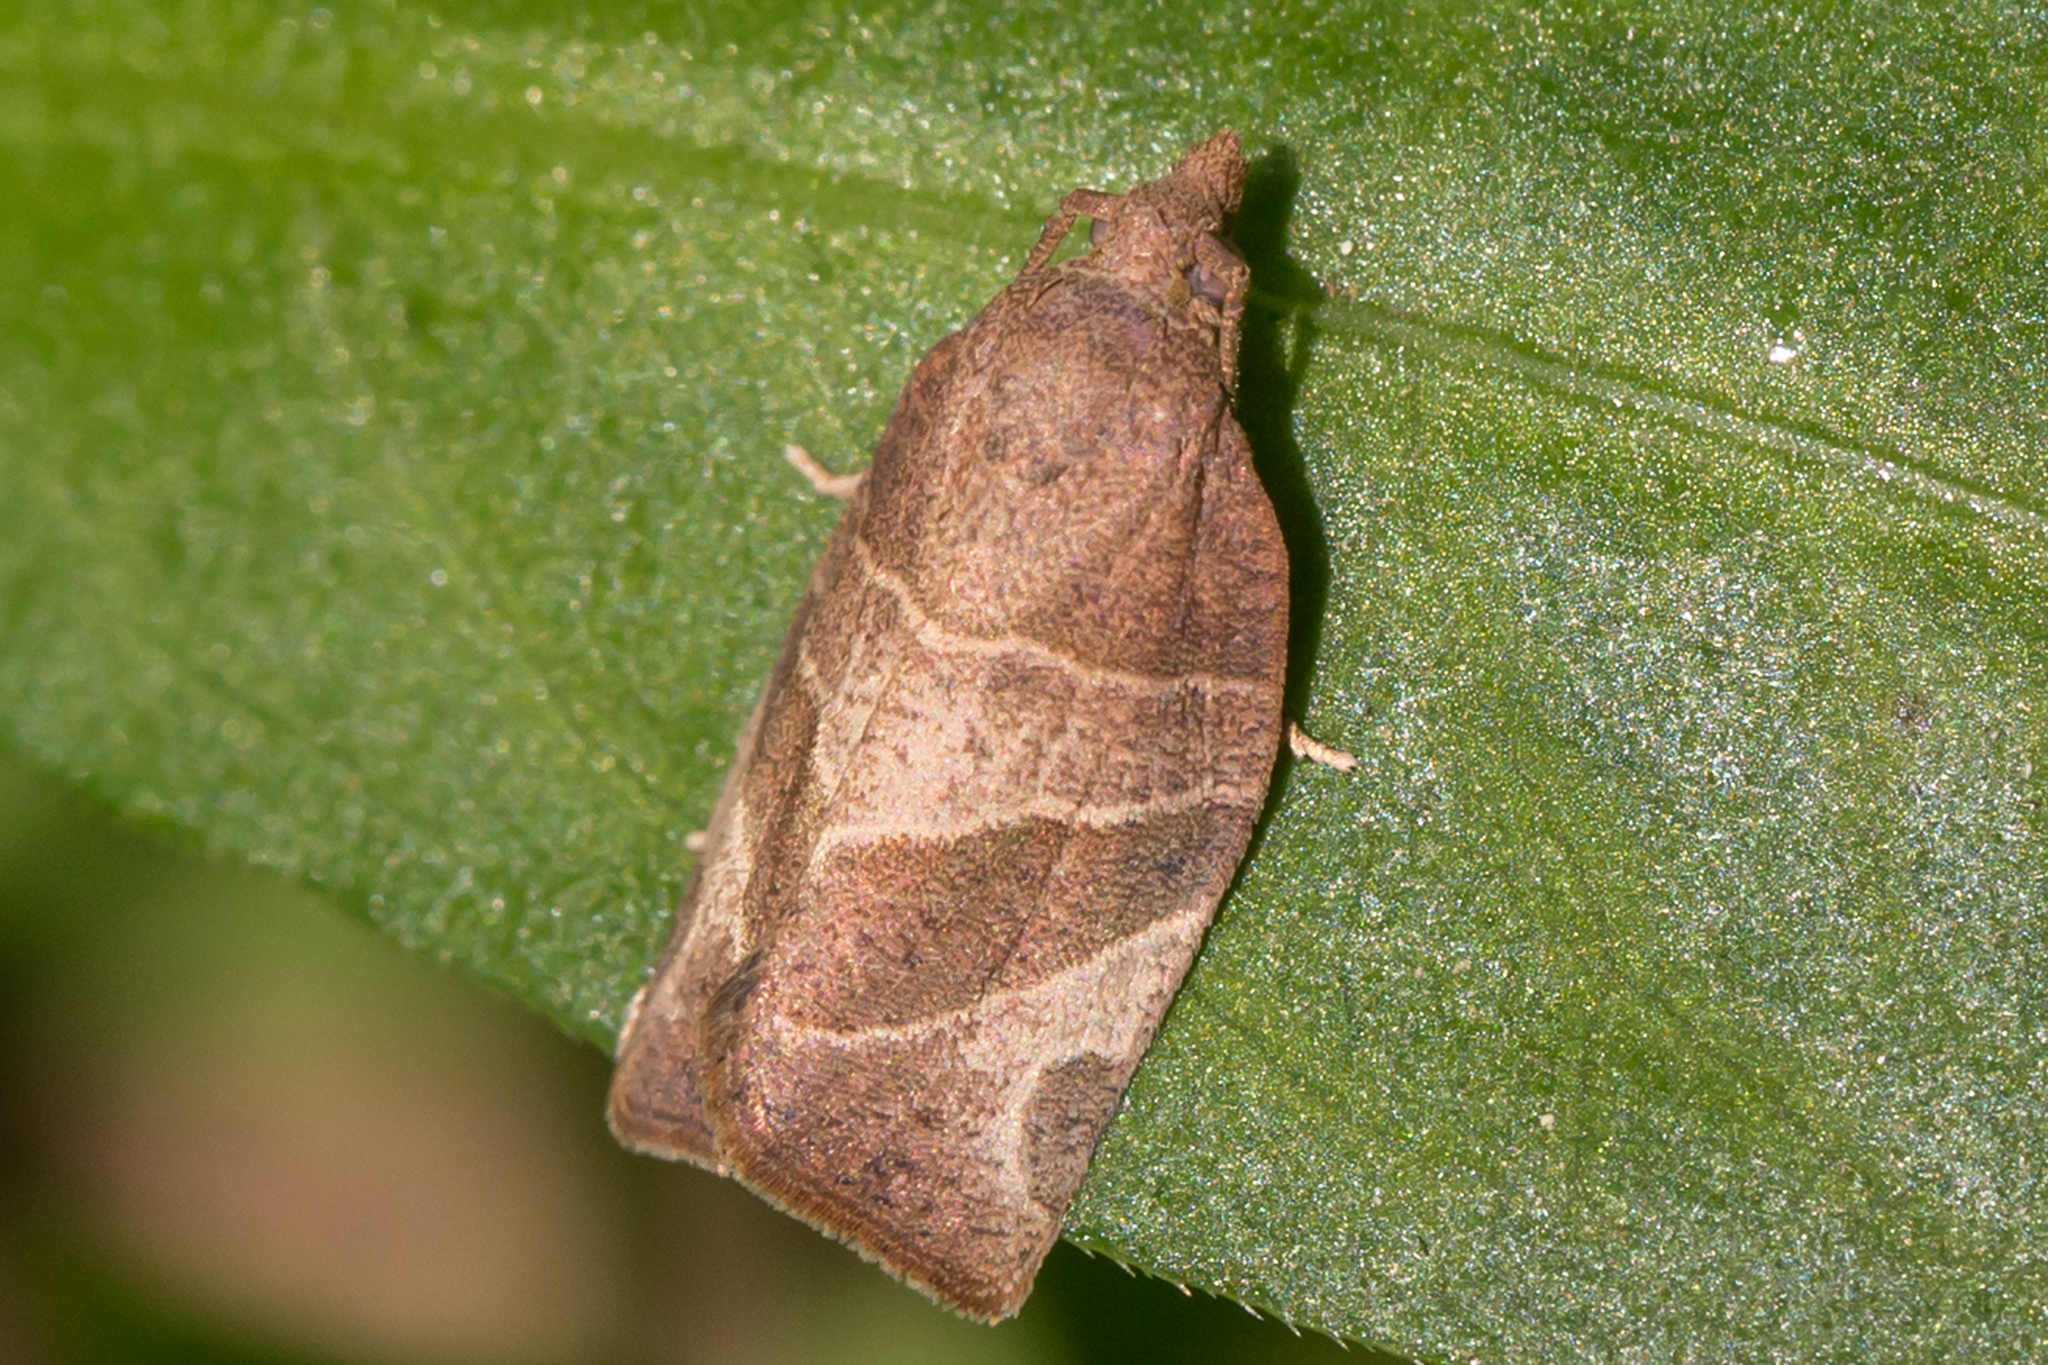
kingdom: Animalia
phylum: Arthropoda
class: Insecta
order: Lepidoptera
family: Tortricidae
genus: Pandemis
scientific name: Pandemis limitata
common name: Three-lined leafroller moth
